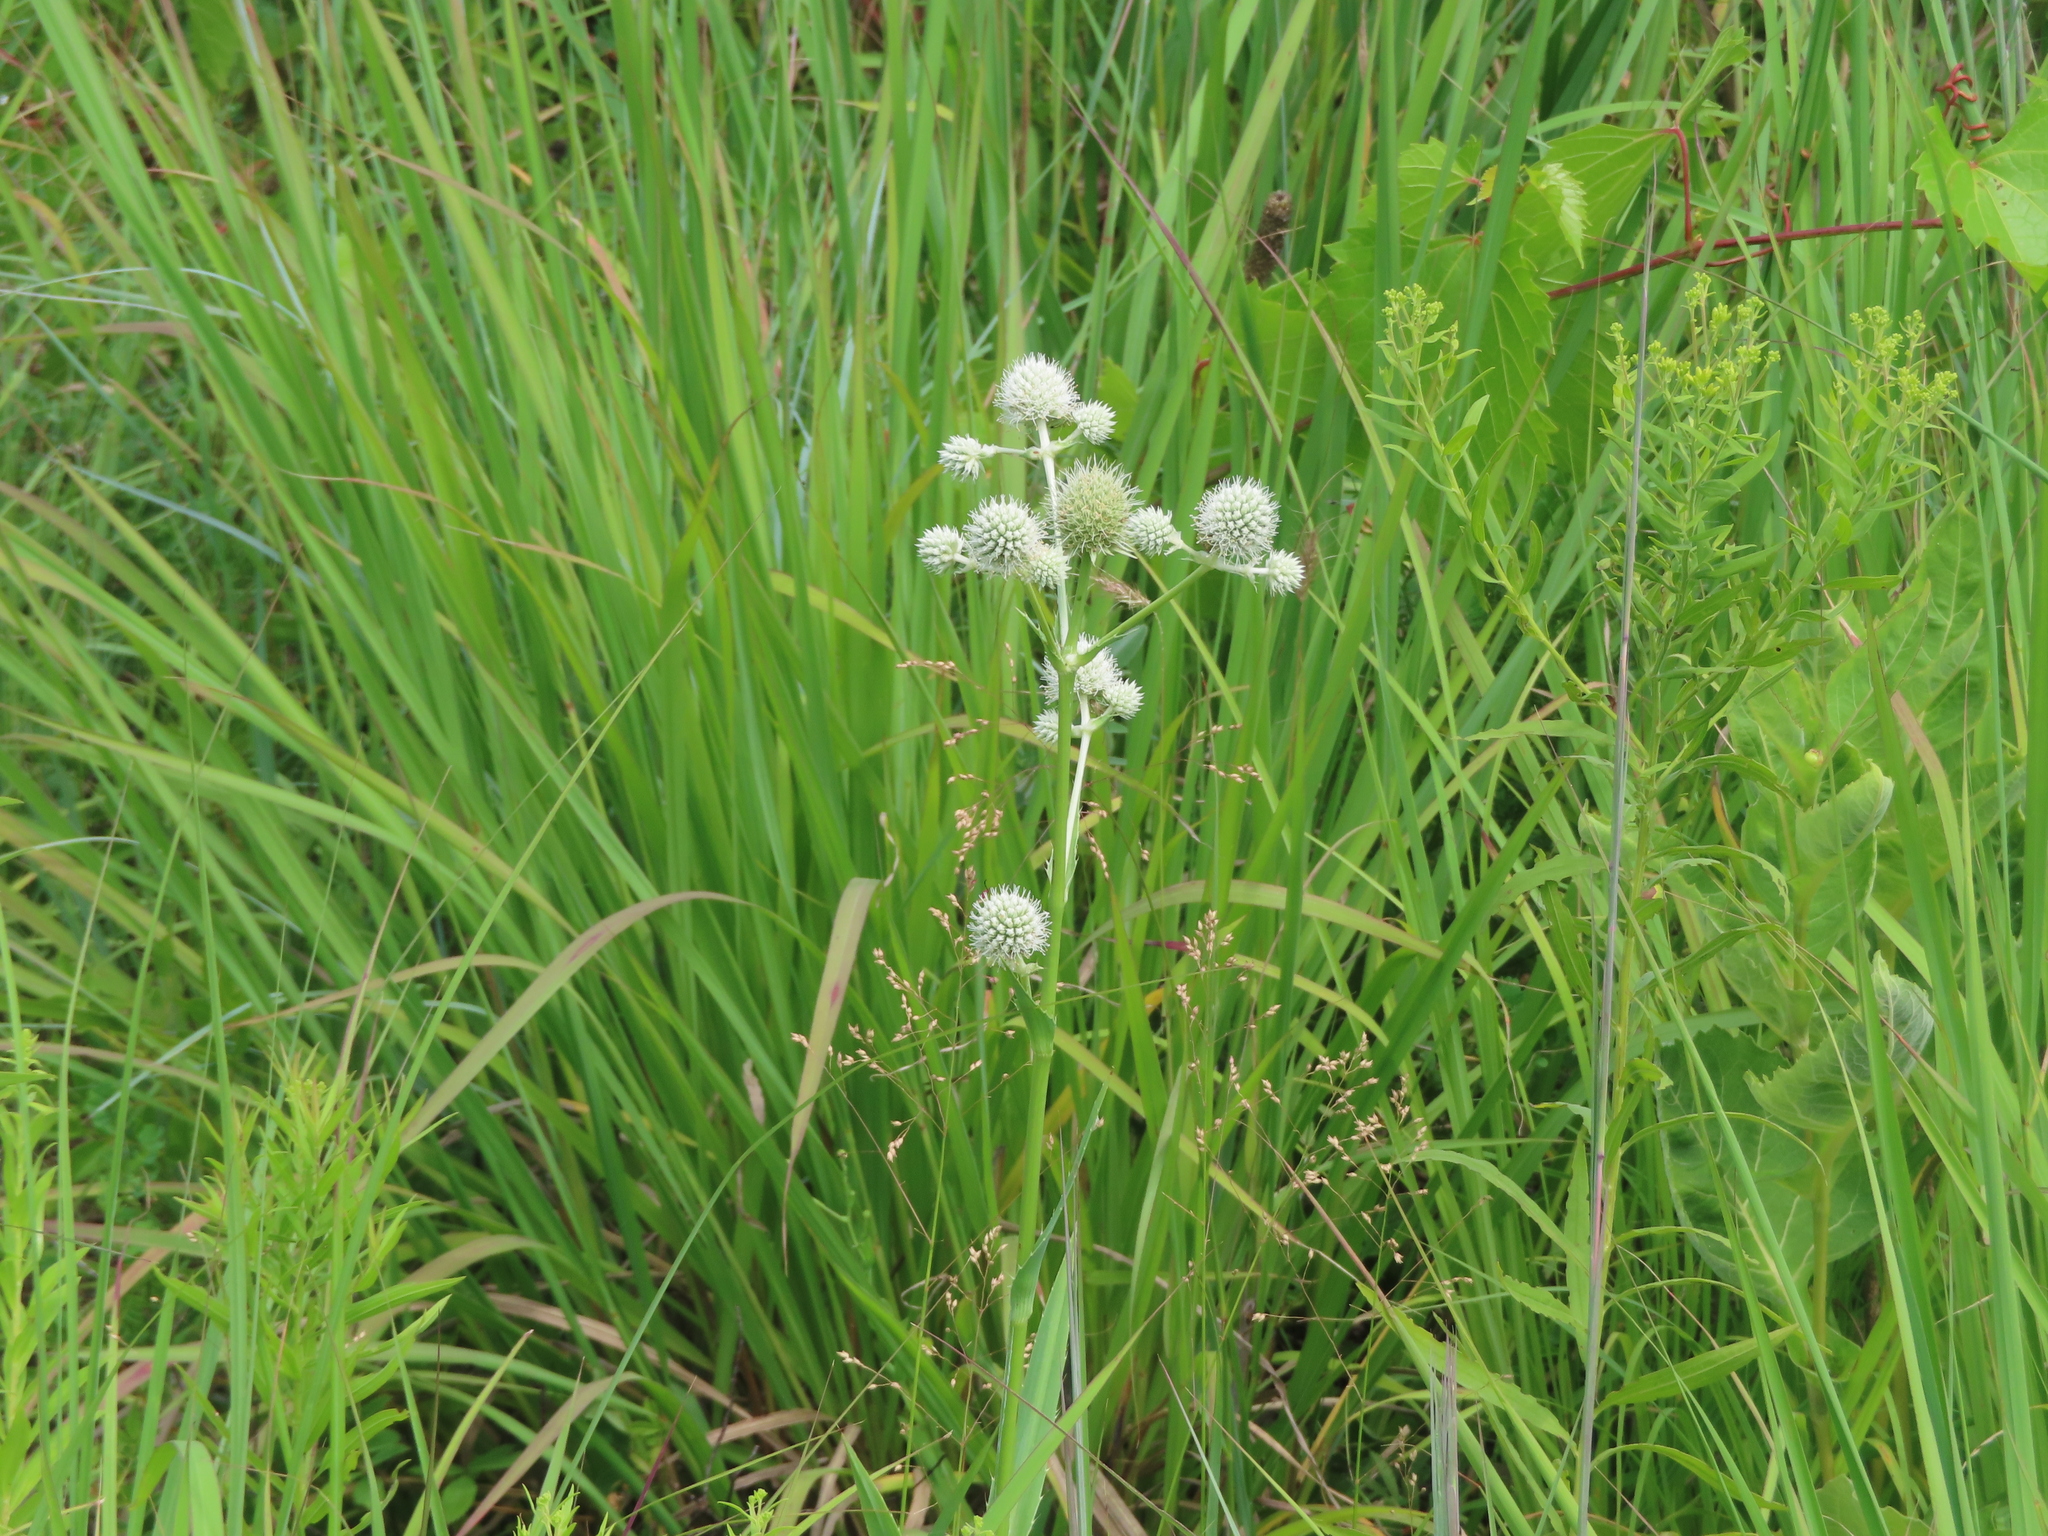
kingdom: Plantae
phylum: Tracheophyta
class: Magnoliopsida
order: Apiales
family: Apiaceae
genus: Eryngium
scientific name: Eryngium yuccifolium
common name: Button eryngo
